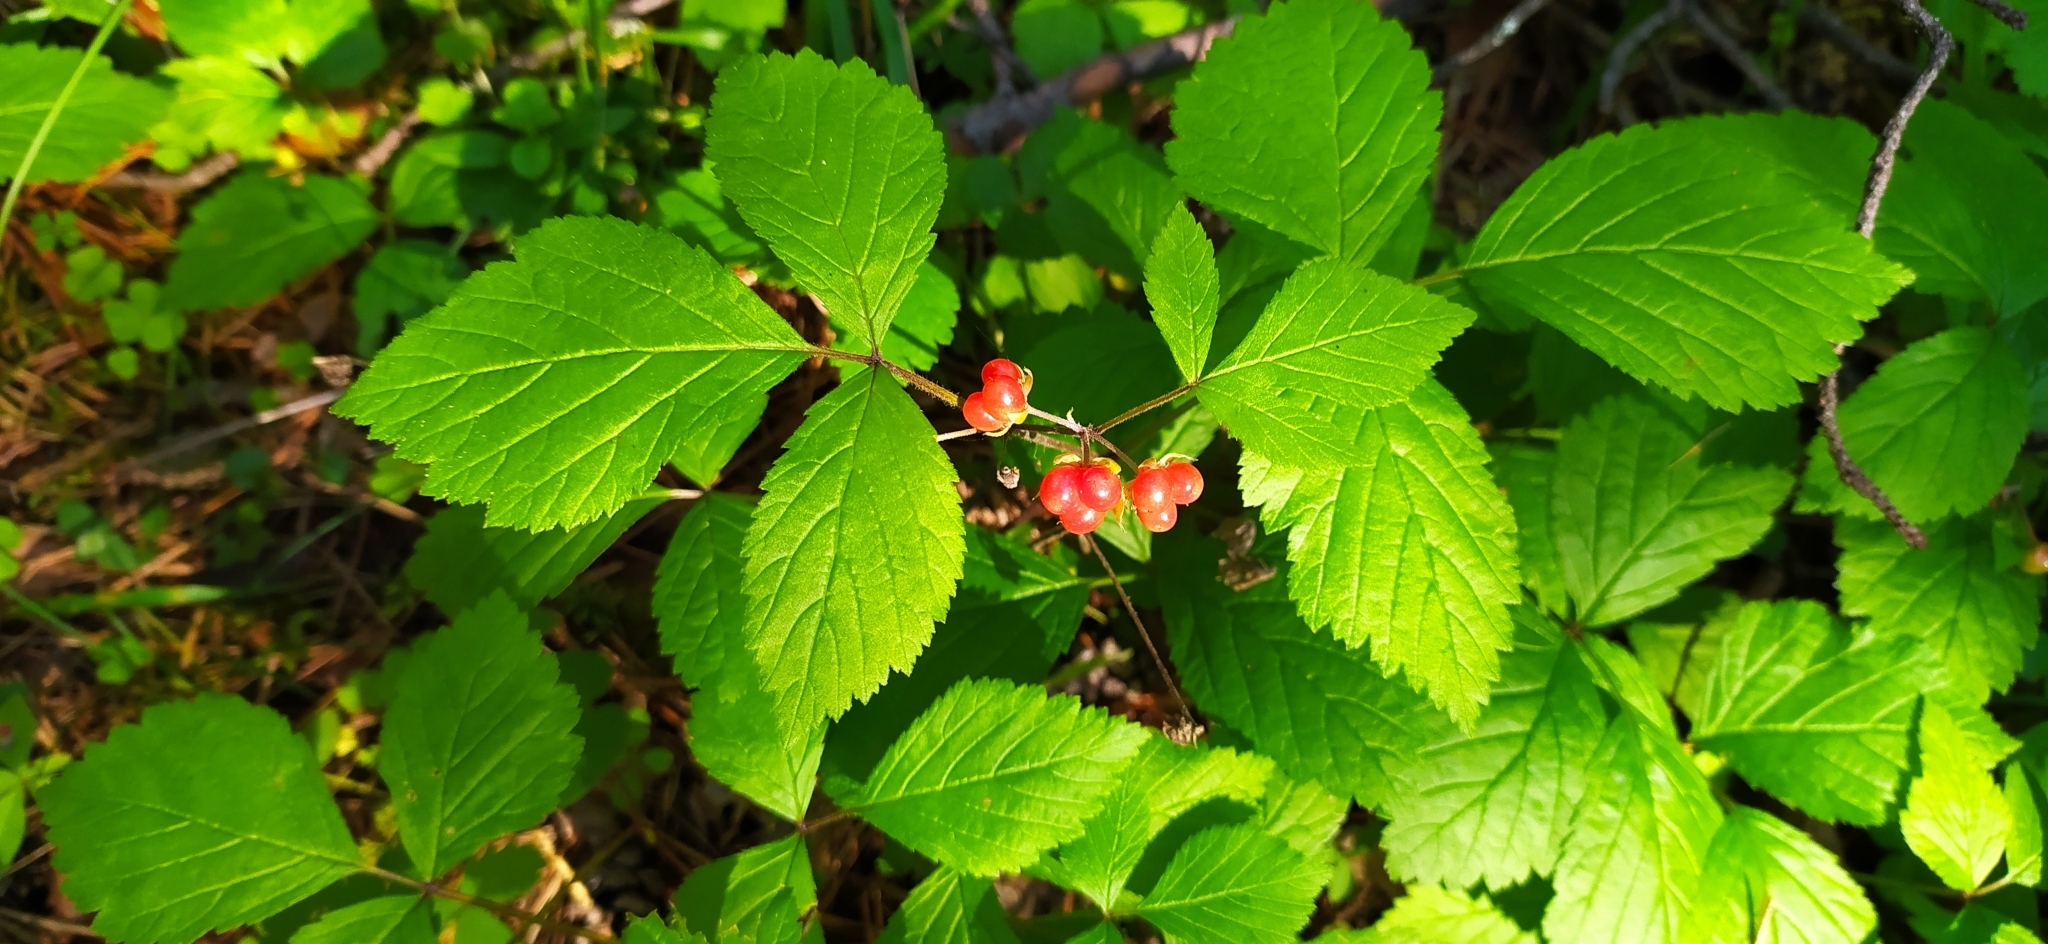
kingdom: Plantae
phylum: Tracheophyta
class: Magnoliopsida
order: Rosales
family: Rosaceae
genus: Rubus
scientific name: Rubus saxatilis
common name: Stone bramble
